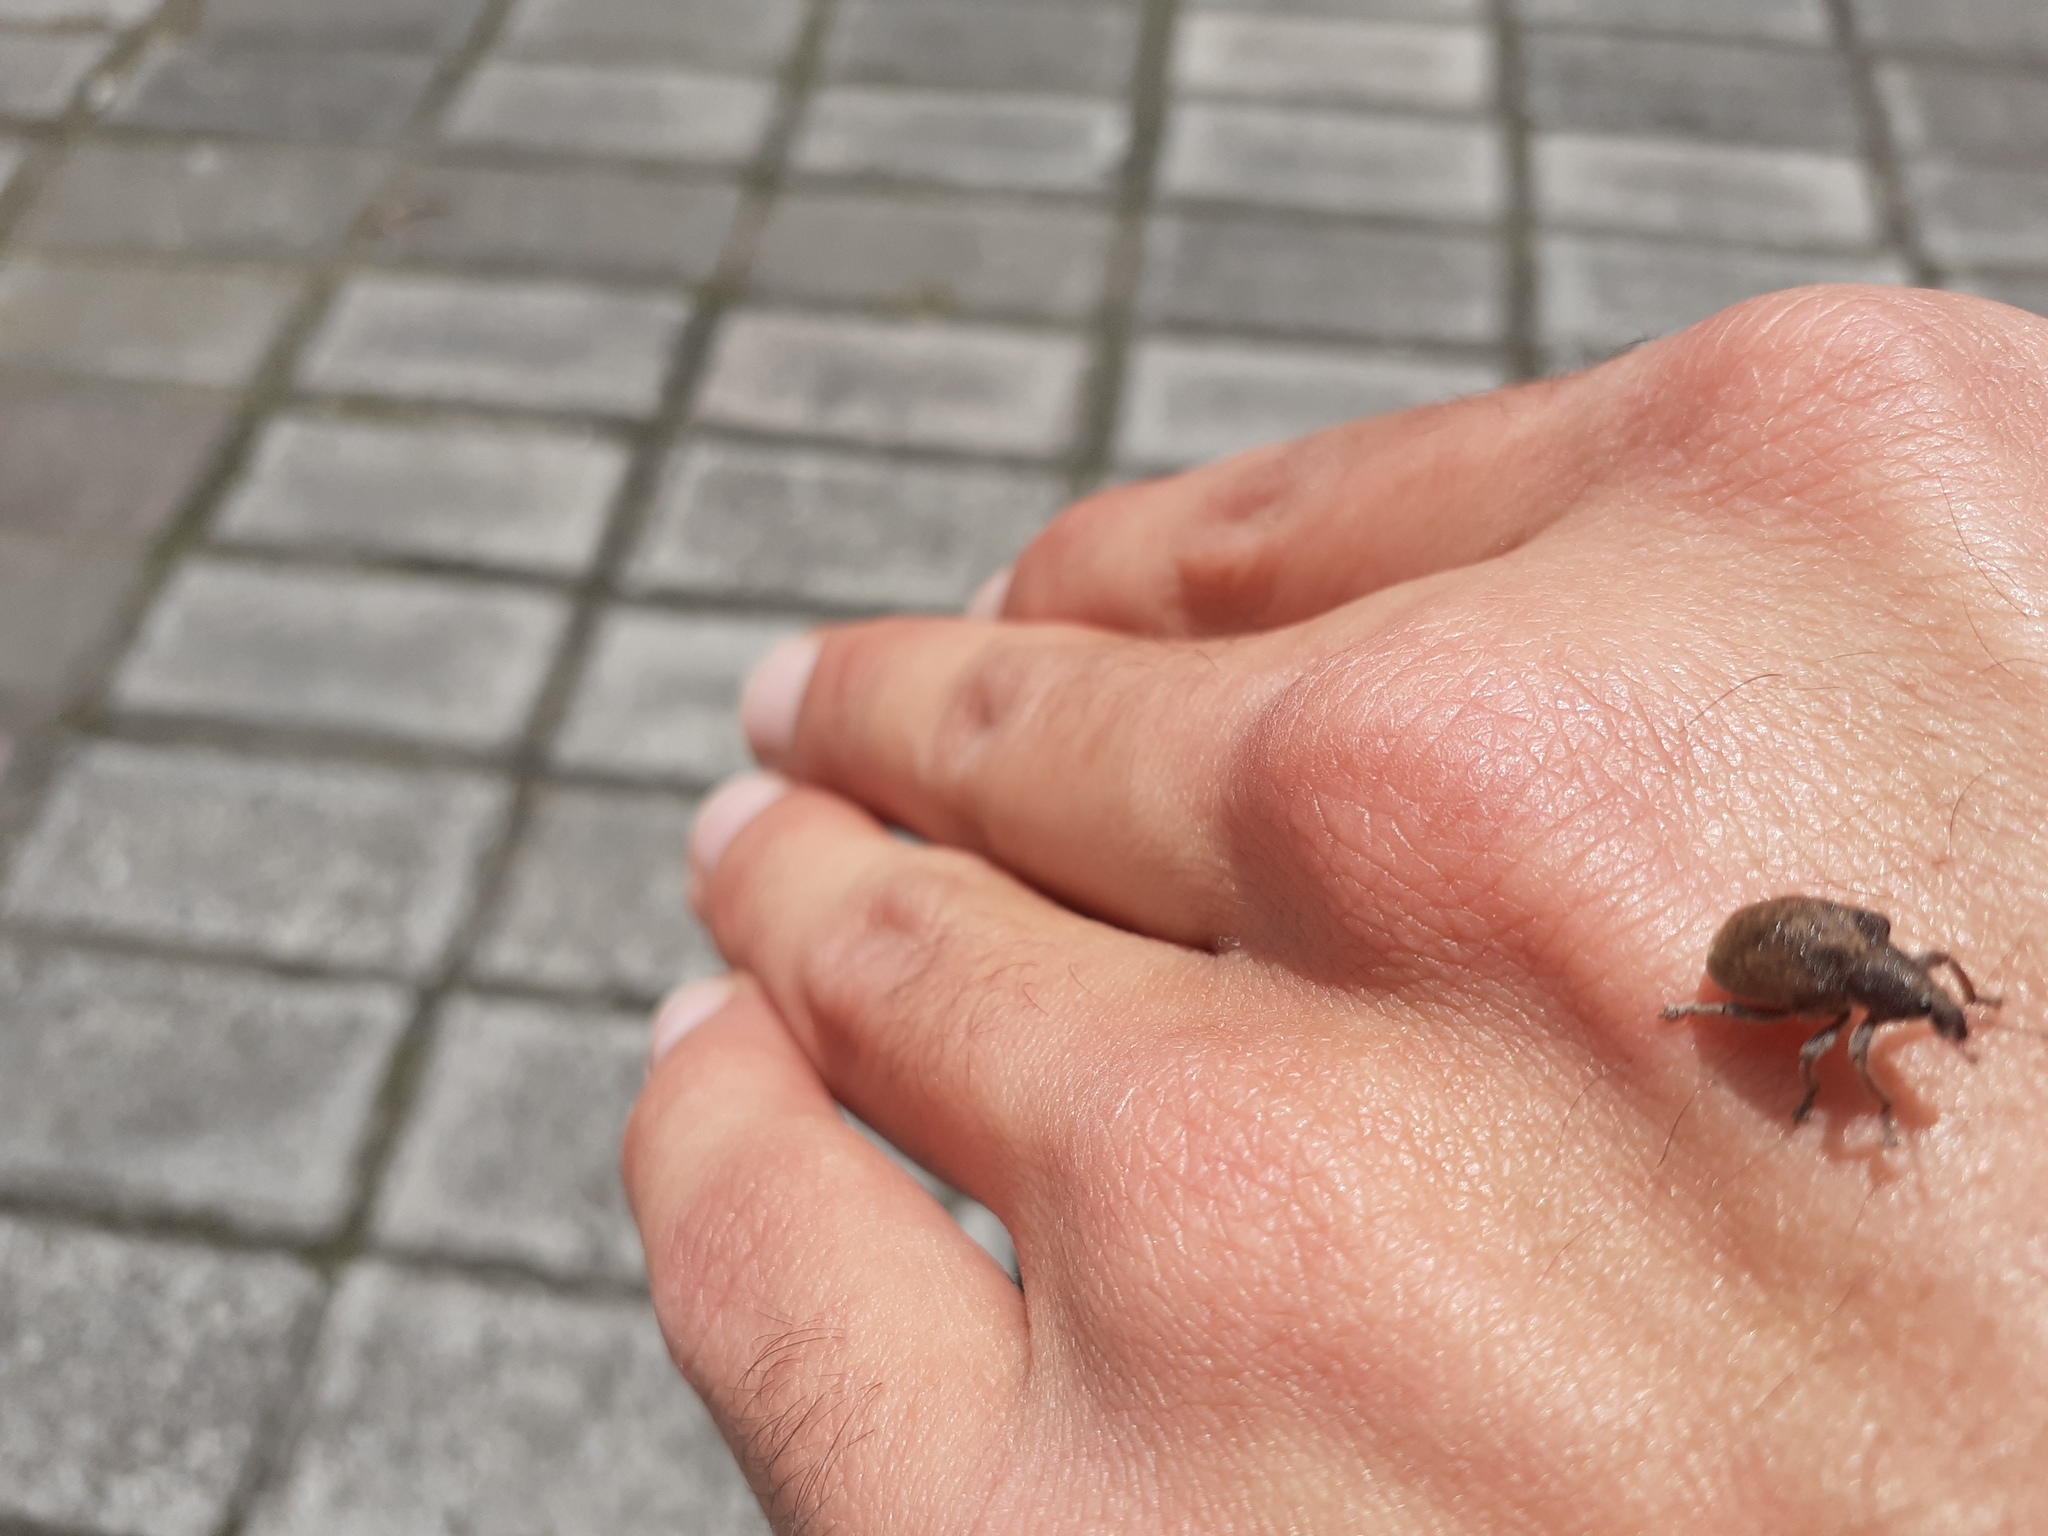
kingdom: Animalia
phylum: Arthropoda
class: Insecta
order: Coleoptera
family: Curculionidae
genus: Gonipterus
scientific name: Gonipterus platensis
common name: Eucalyptus snout beetle
